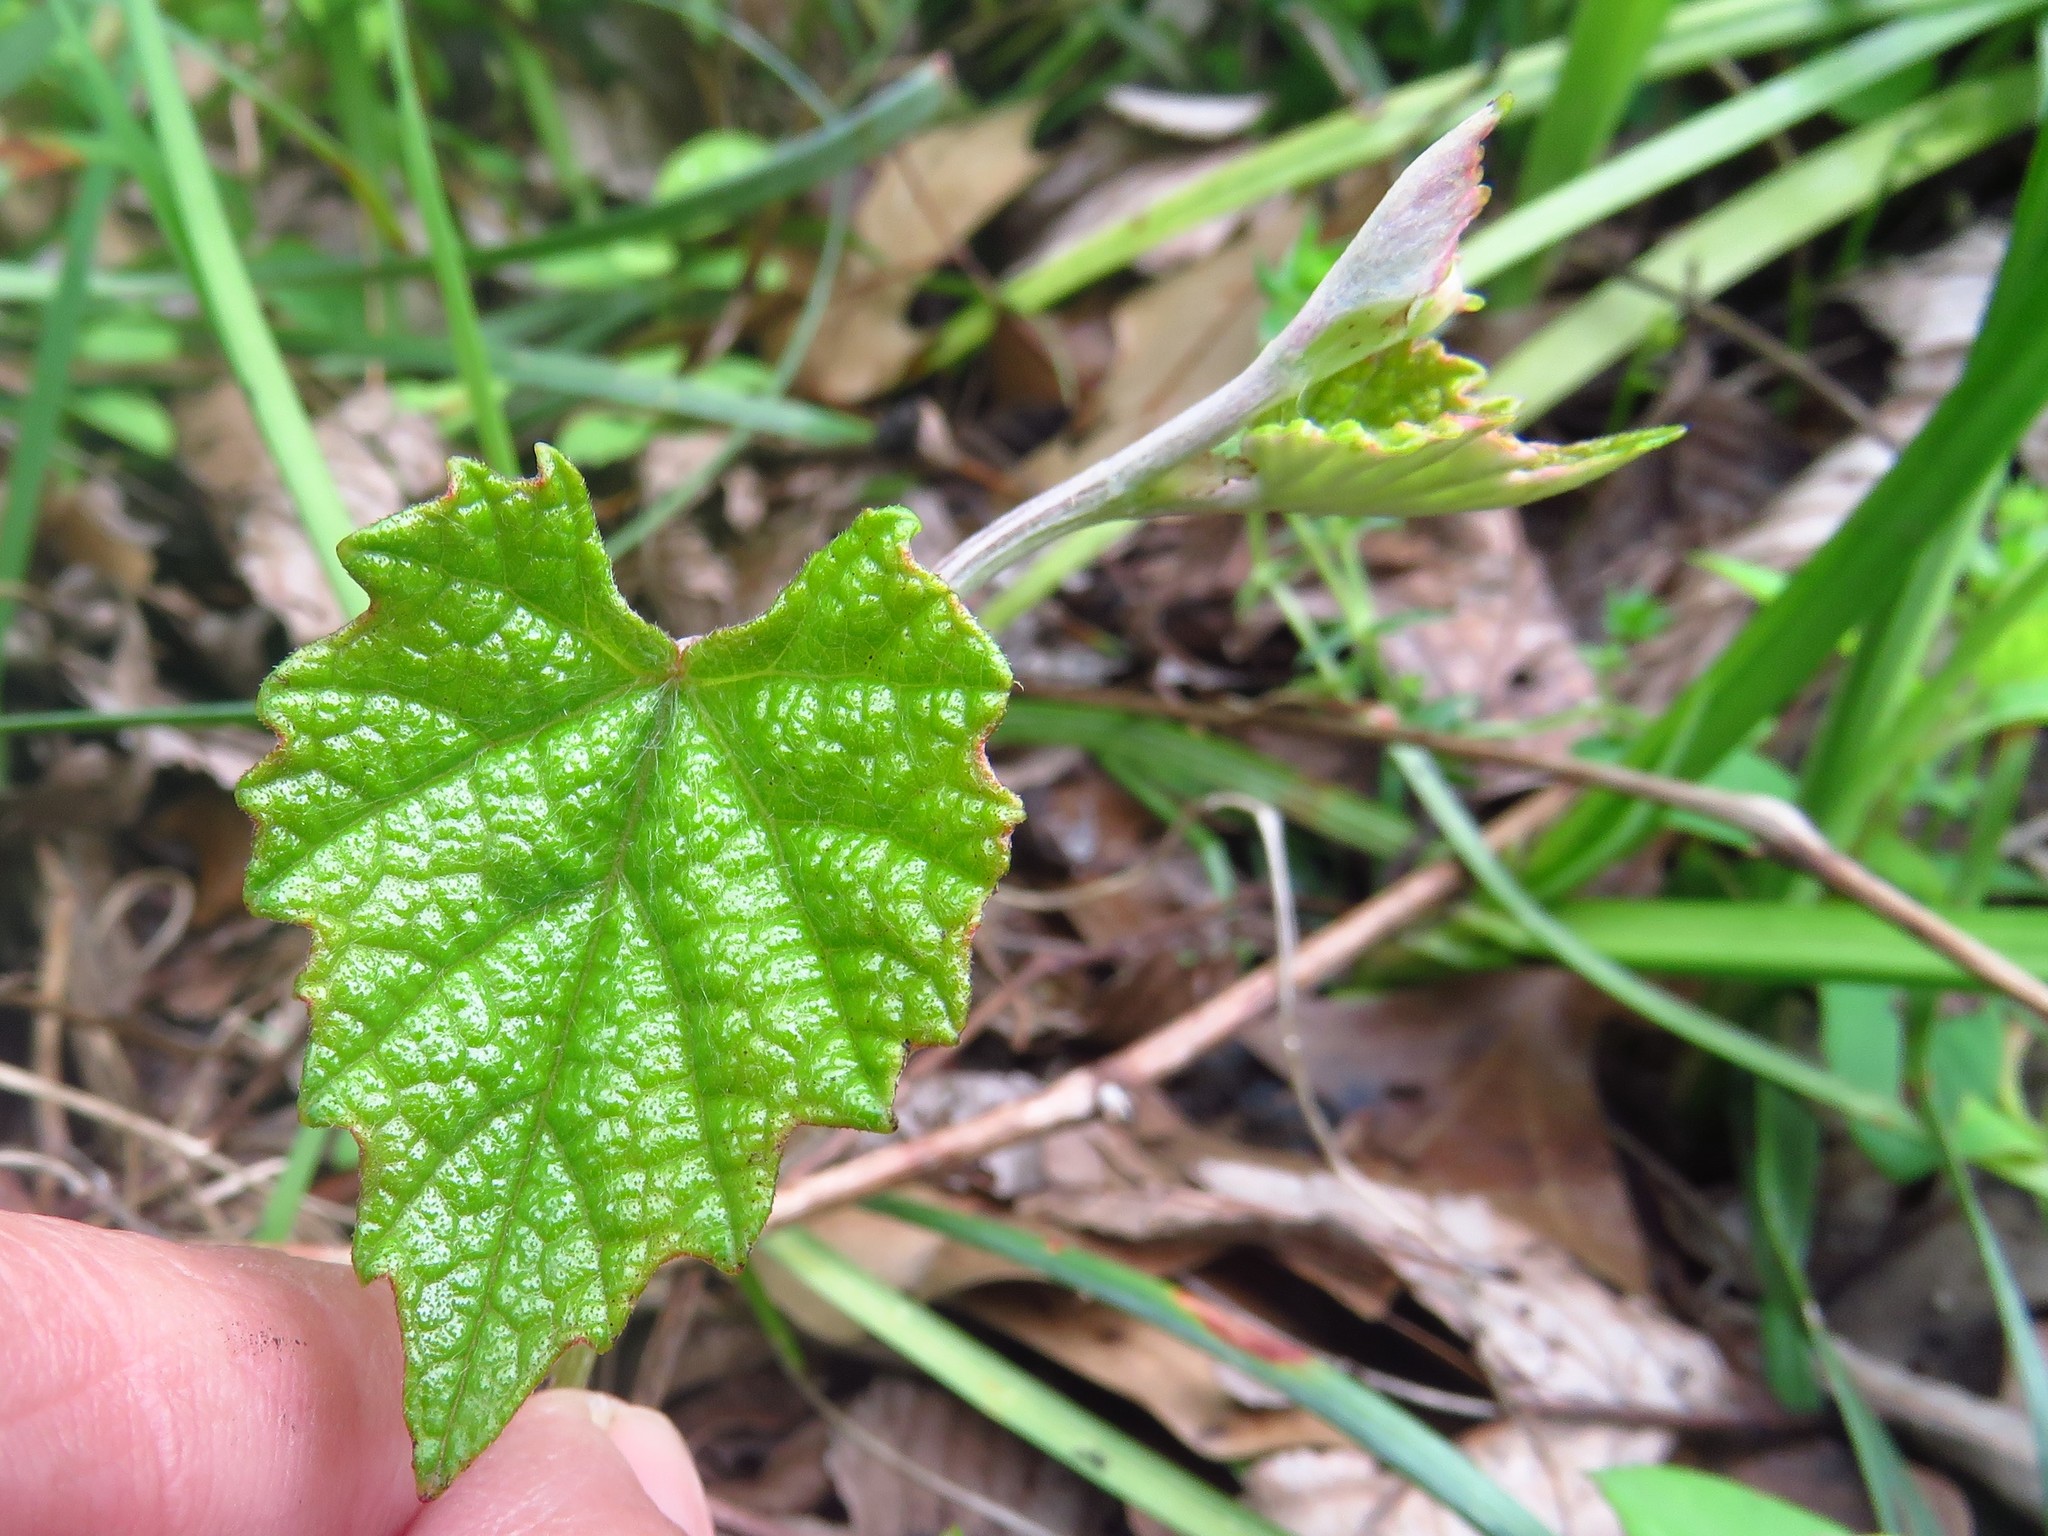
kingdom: Plantae
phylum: Tracheophyta
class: Magnoliopsida
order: Vitales
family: Vitaceae
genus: Vitis
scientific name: Vitis mustangensis
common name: Mustang grape
